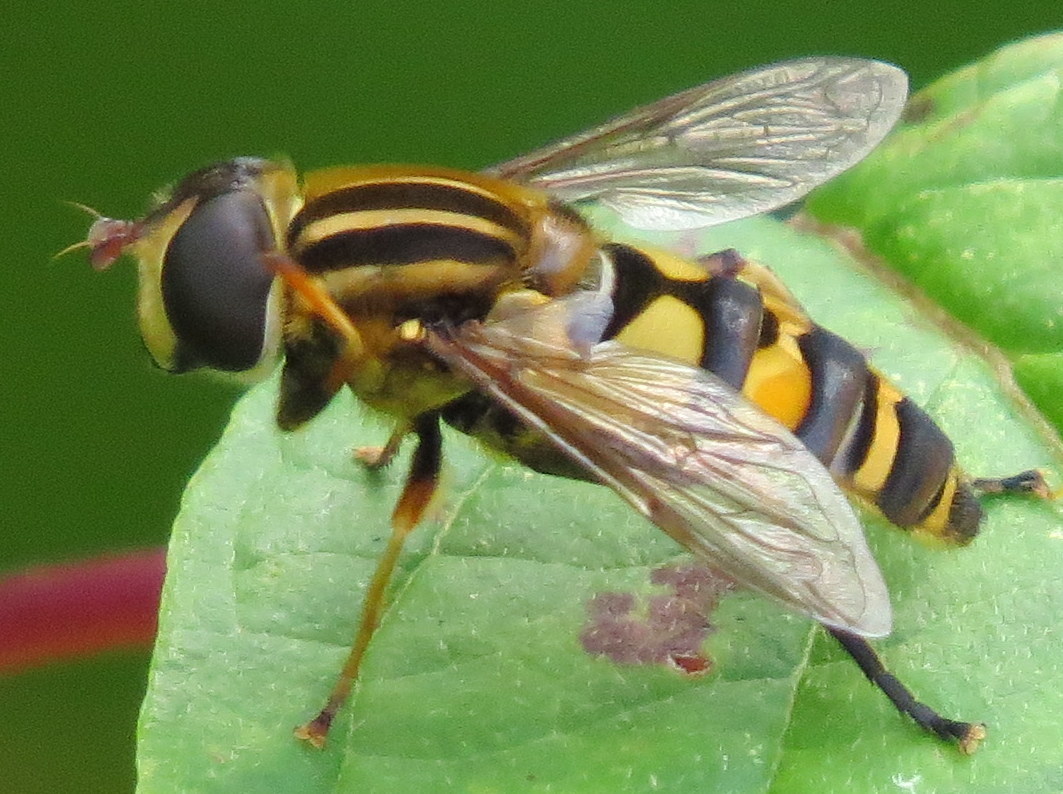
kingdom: Animalia
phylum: Arthropoda
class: Insecta
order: Diptera
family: Syrphidae
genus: Helophilus
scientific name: Helophilus fasciatus
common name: Narrow-headed marsh fly
